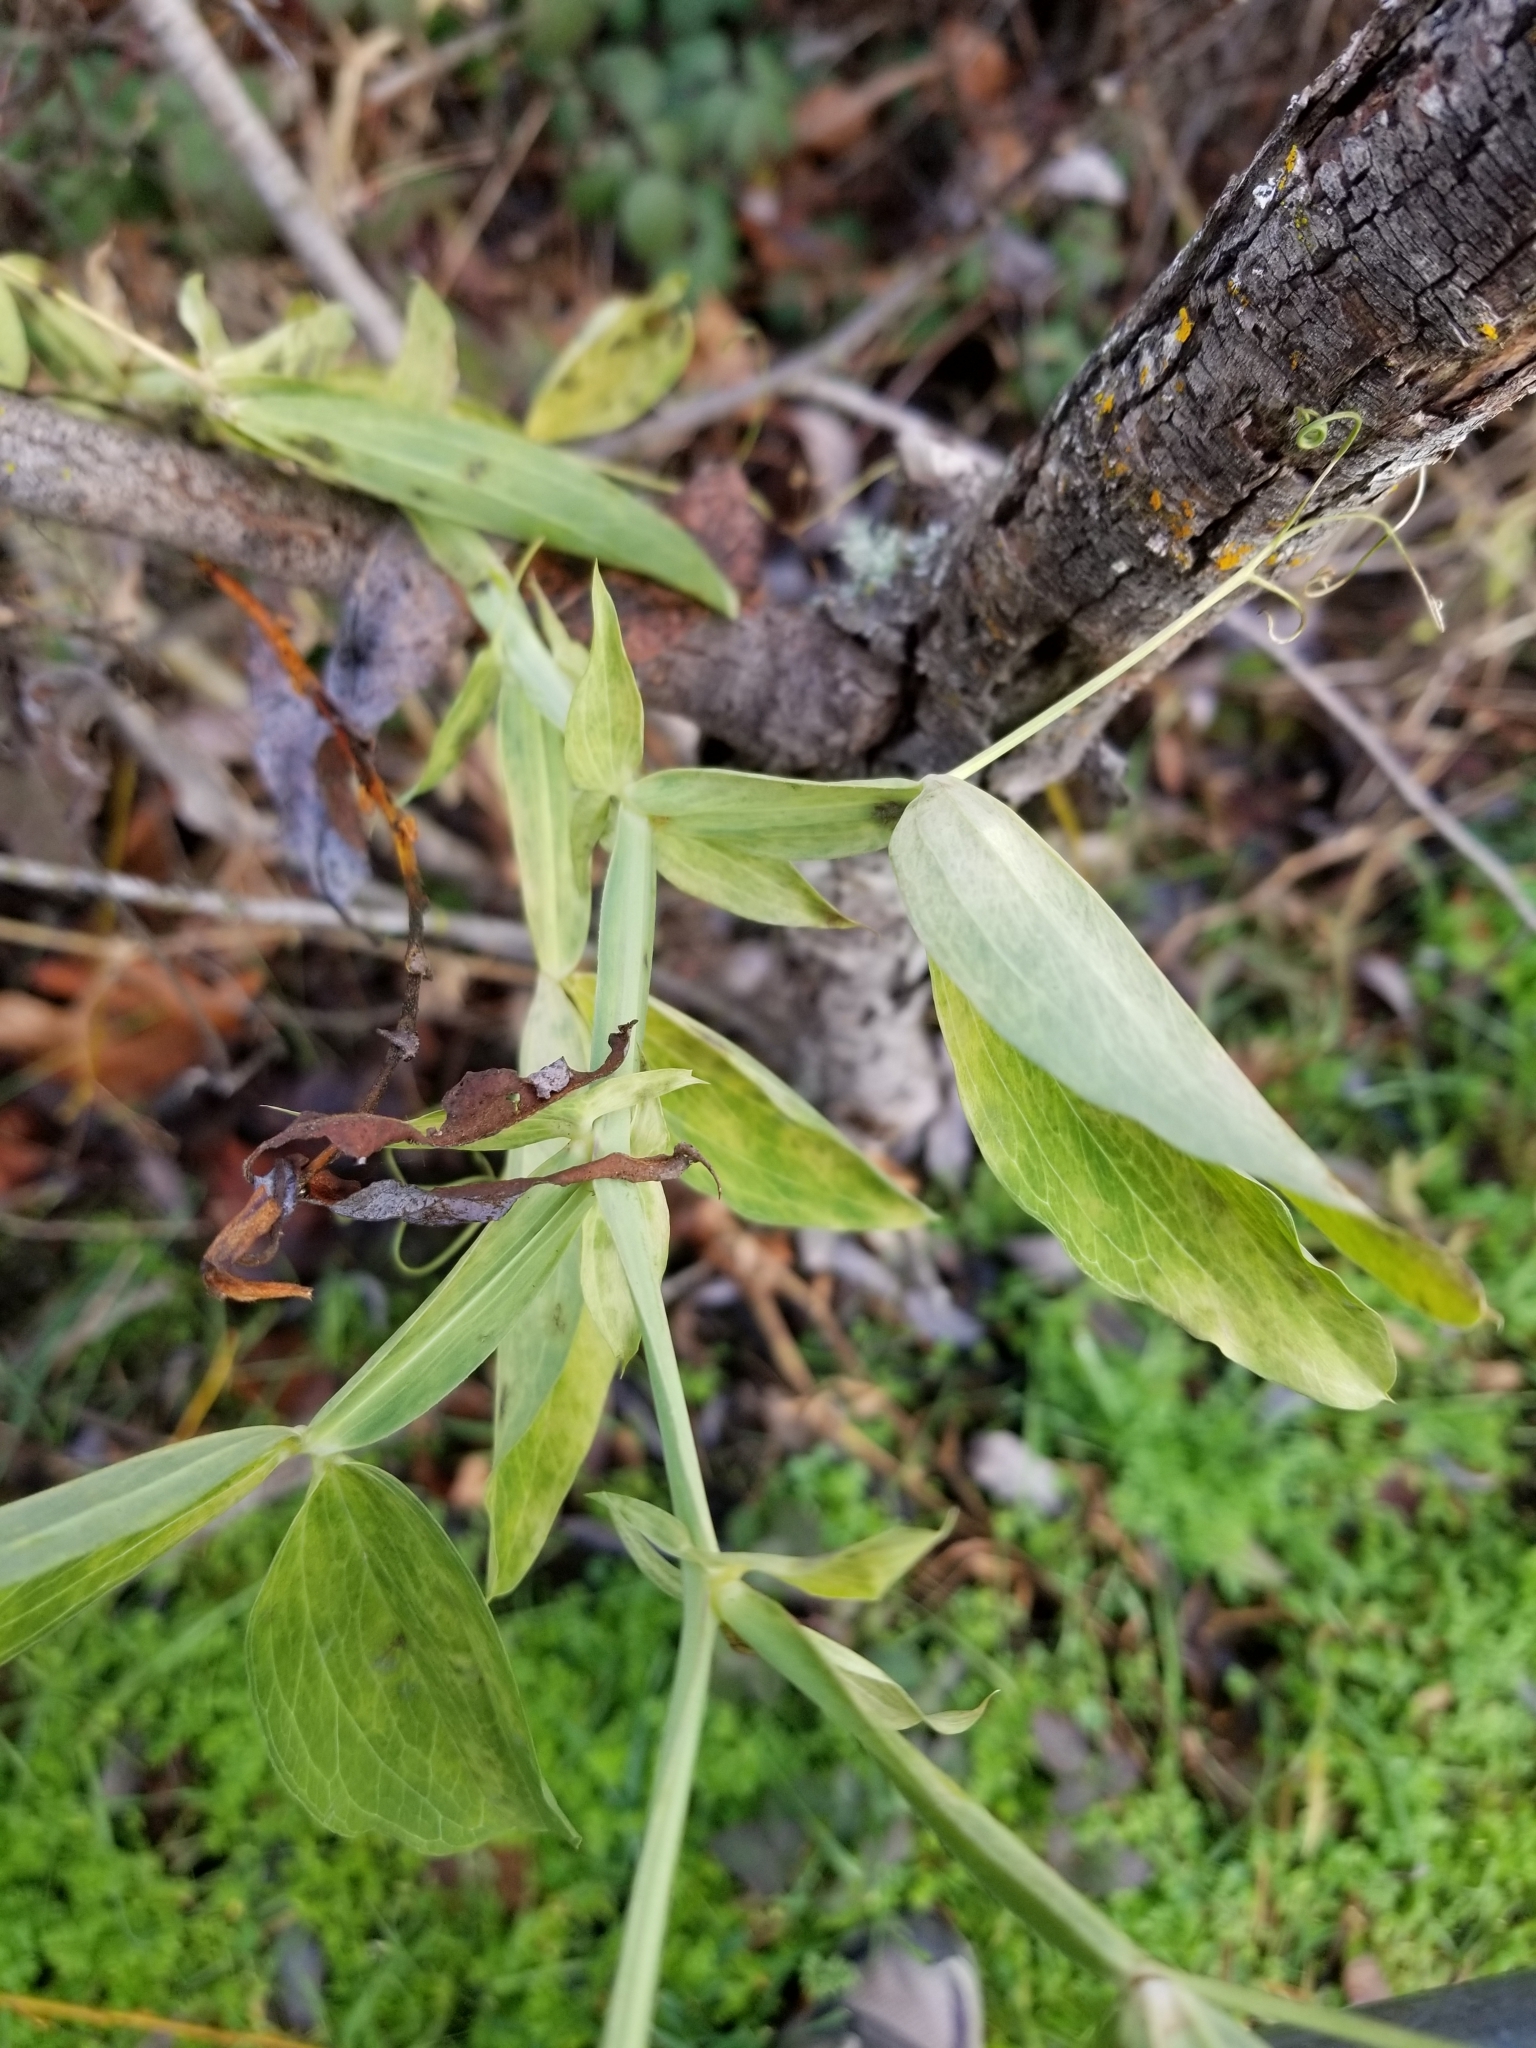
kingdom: Plantae
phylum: Tracheophyta
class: Magnoliopsida
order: Fabales
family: Fabaceae
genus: Lathyrus
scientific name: Lathyrus latifolius
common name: Perennial pea
